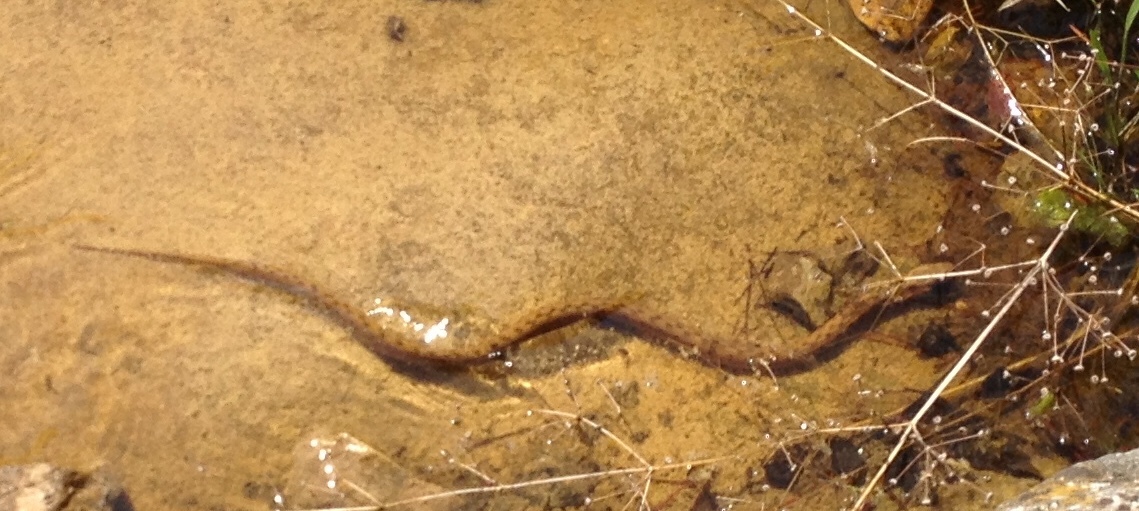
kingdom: Animalia
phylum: Chordata
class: Squamata
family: Colubridae
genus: Natrix
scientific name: Natrix maura
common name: Viperine water snake
